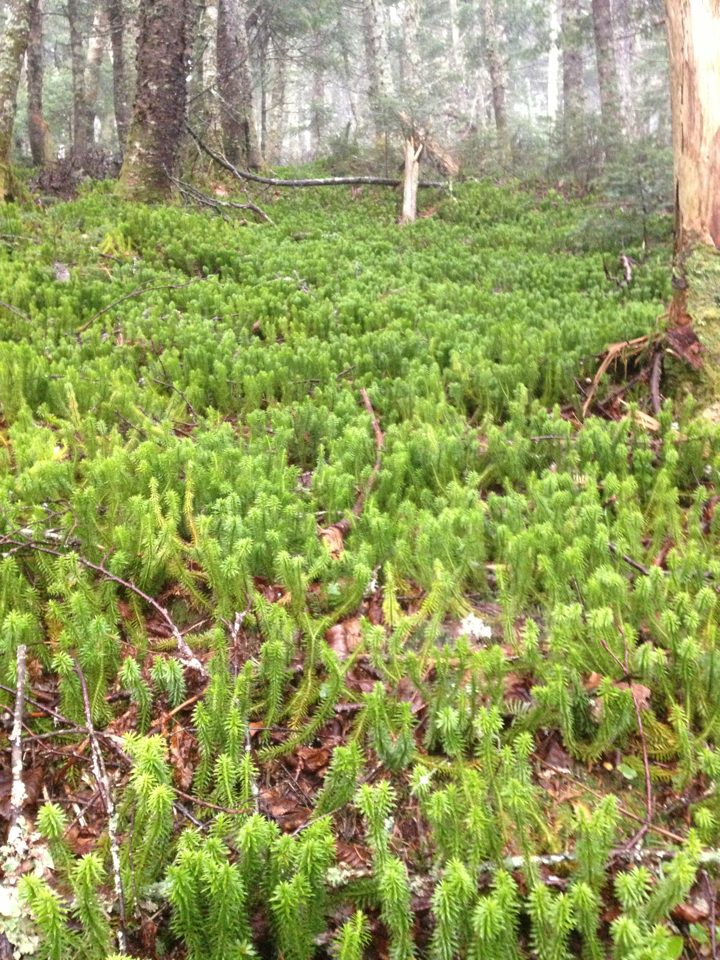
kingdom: Plantae
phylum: Tracheophyta
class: Lycopodiopsida
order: Lycopodiales
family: Lycopodiaceae
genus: Huperzia
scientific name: Huperzia lucidula
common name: Shining clubmoss
